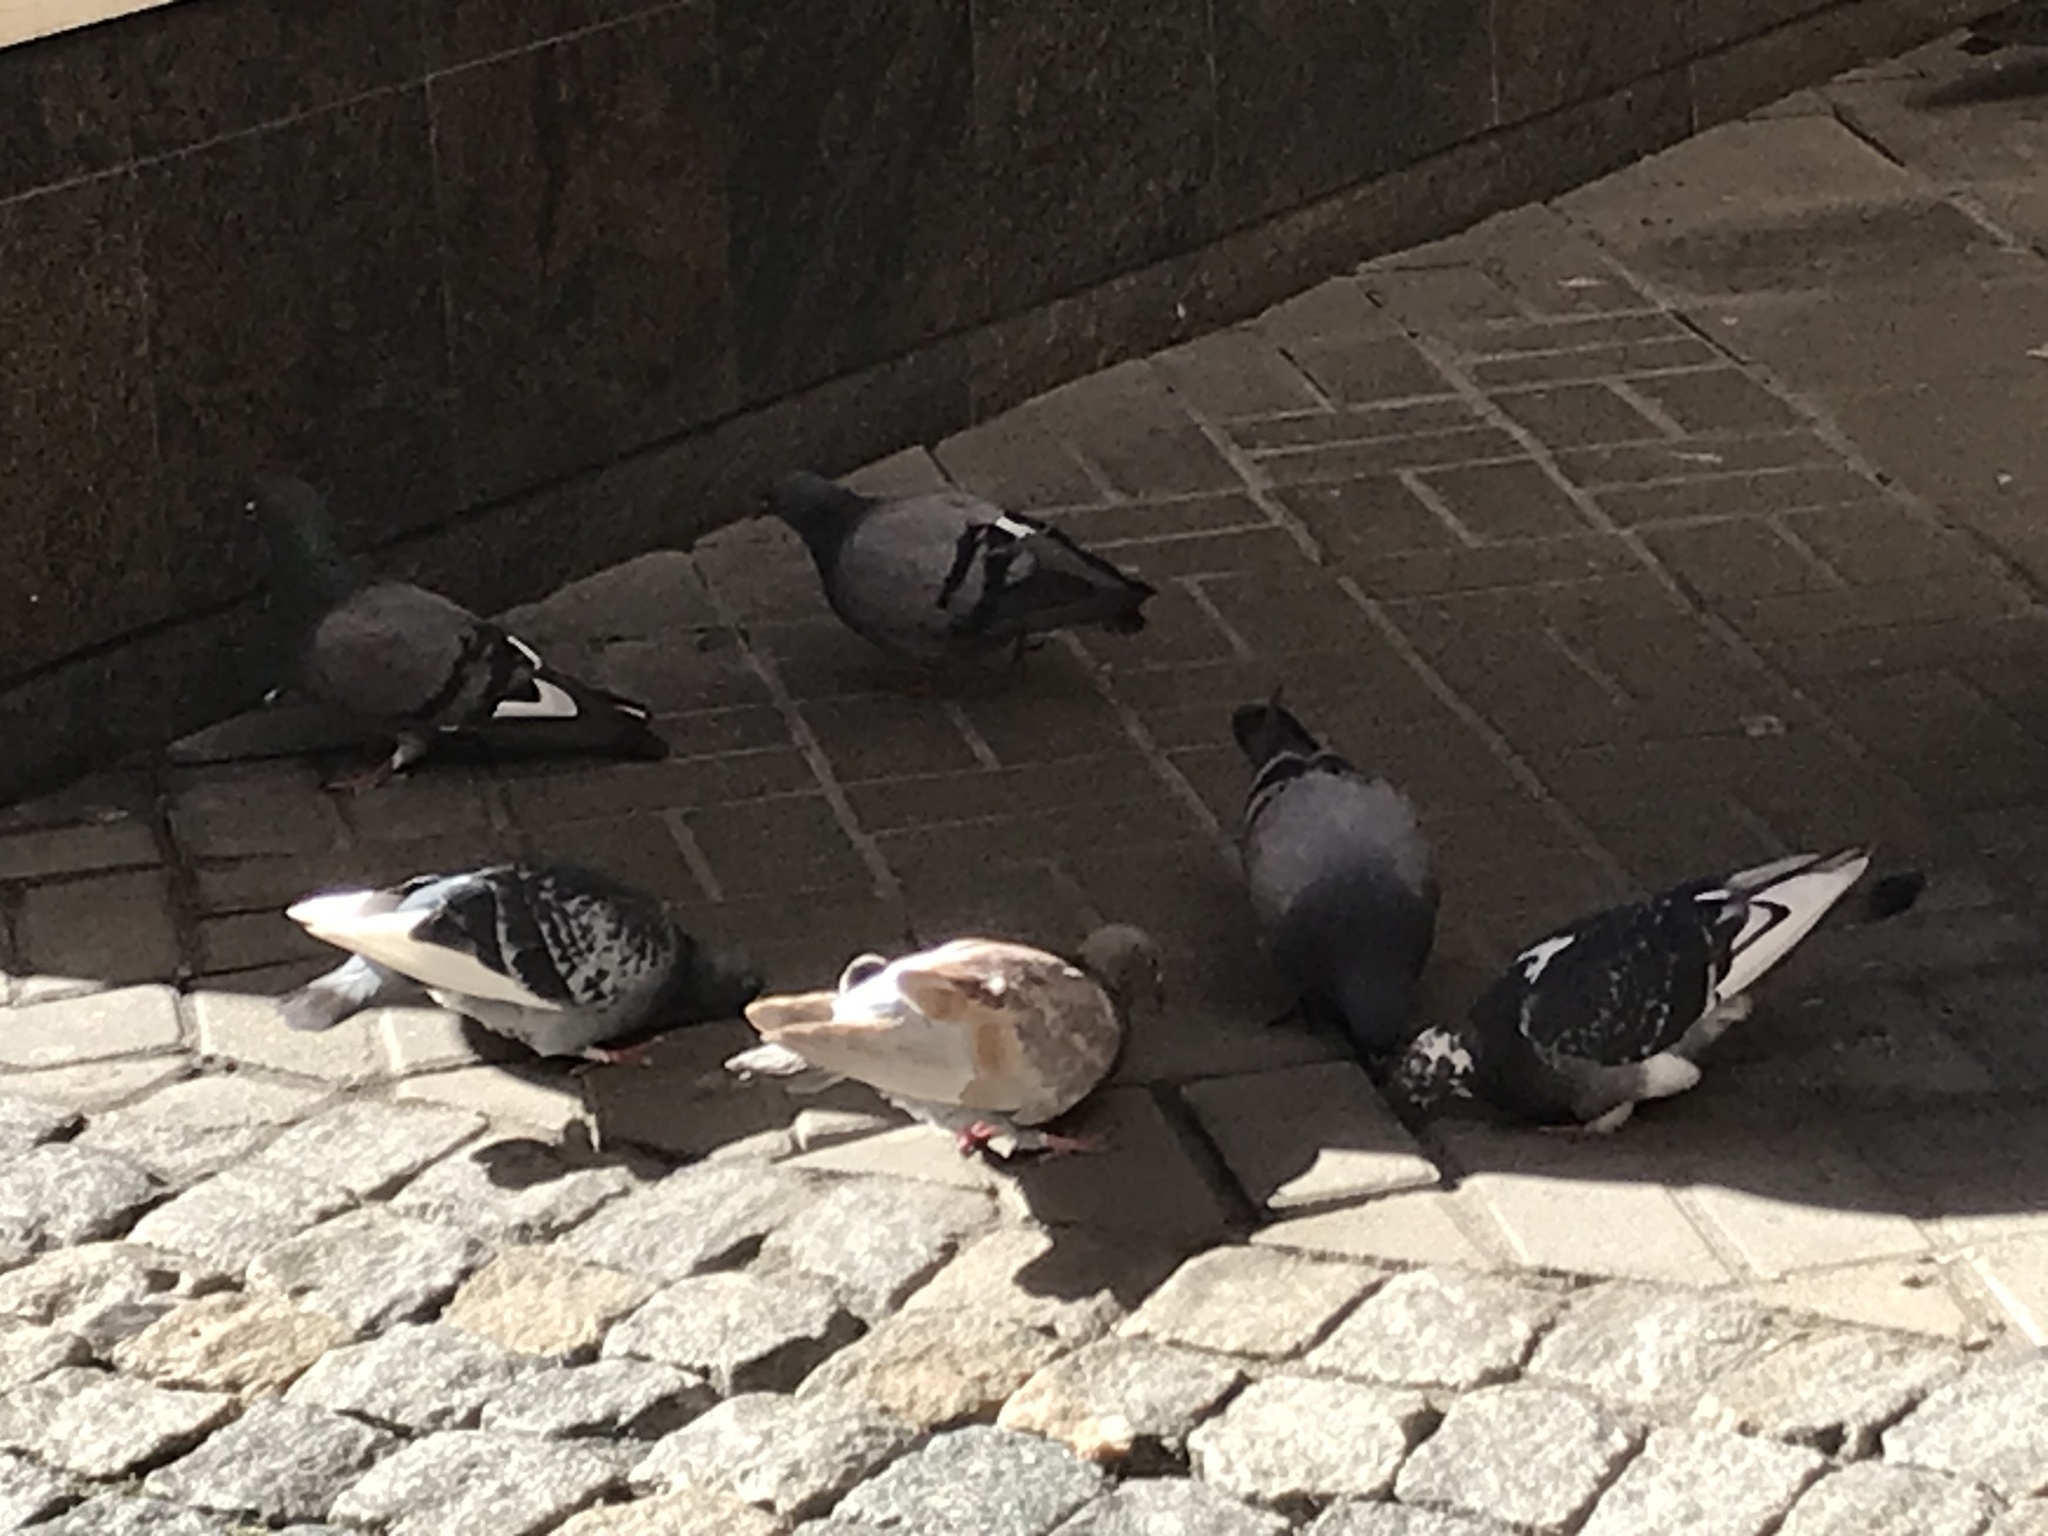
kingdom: Animalia
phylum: Chordata
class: Aves
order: Columbiformes
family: Columbidae
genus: Columba
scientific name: Columba livia
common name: Rock pigeon
